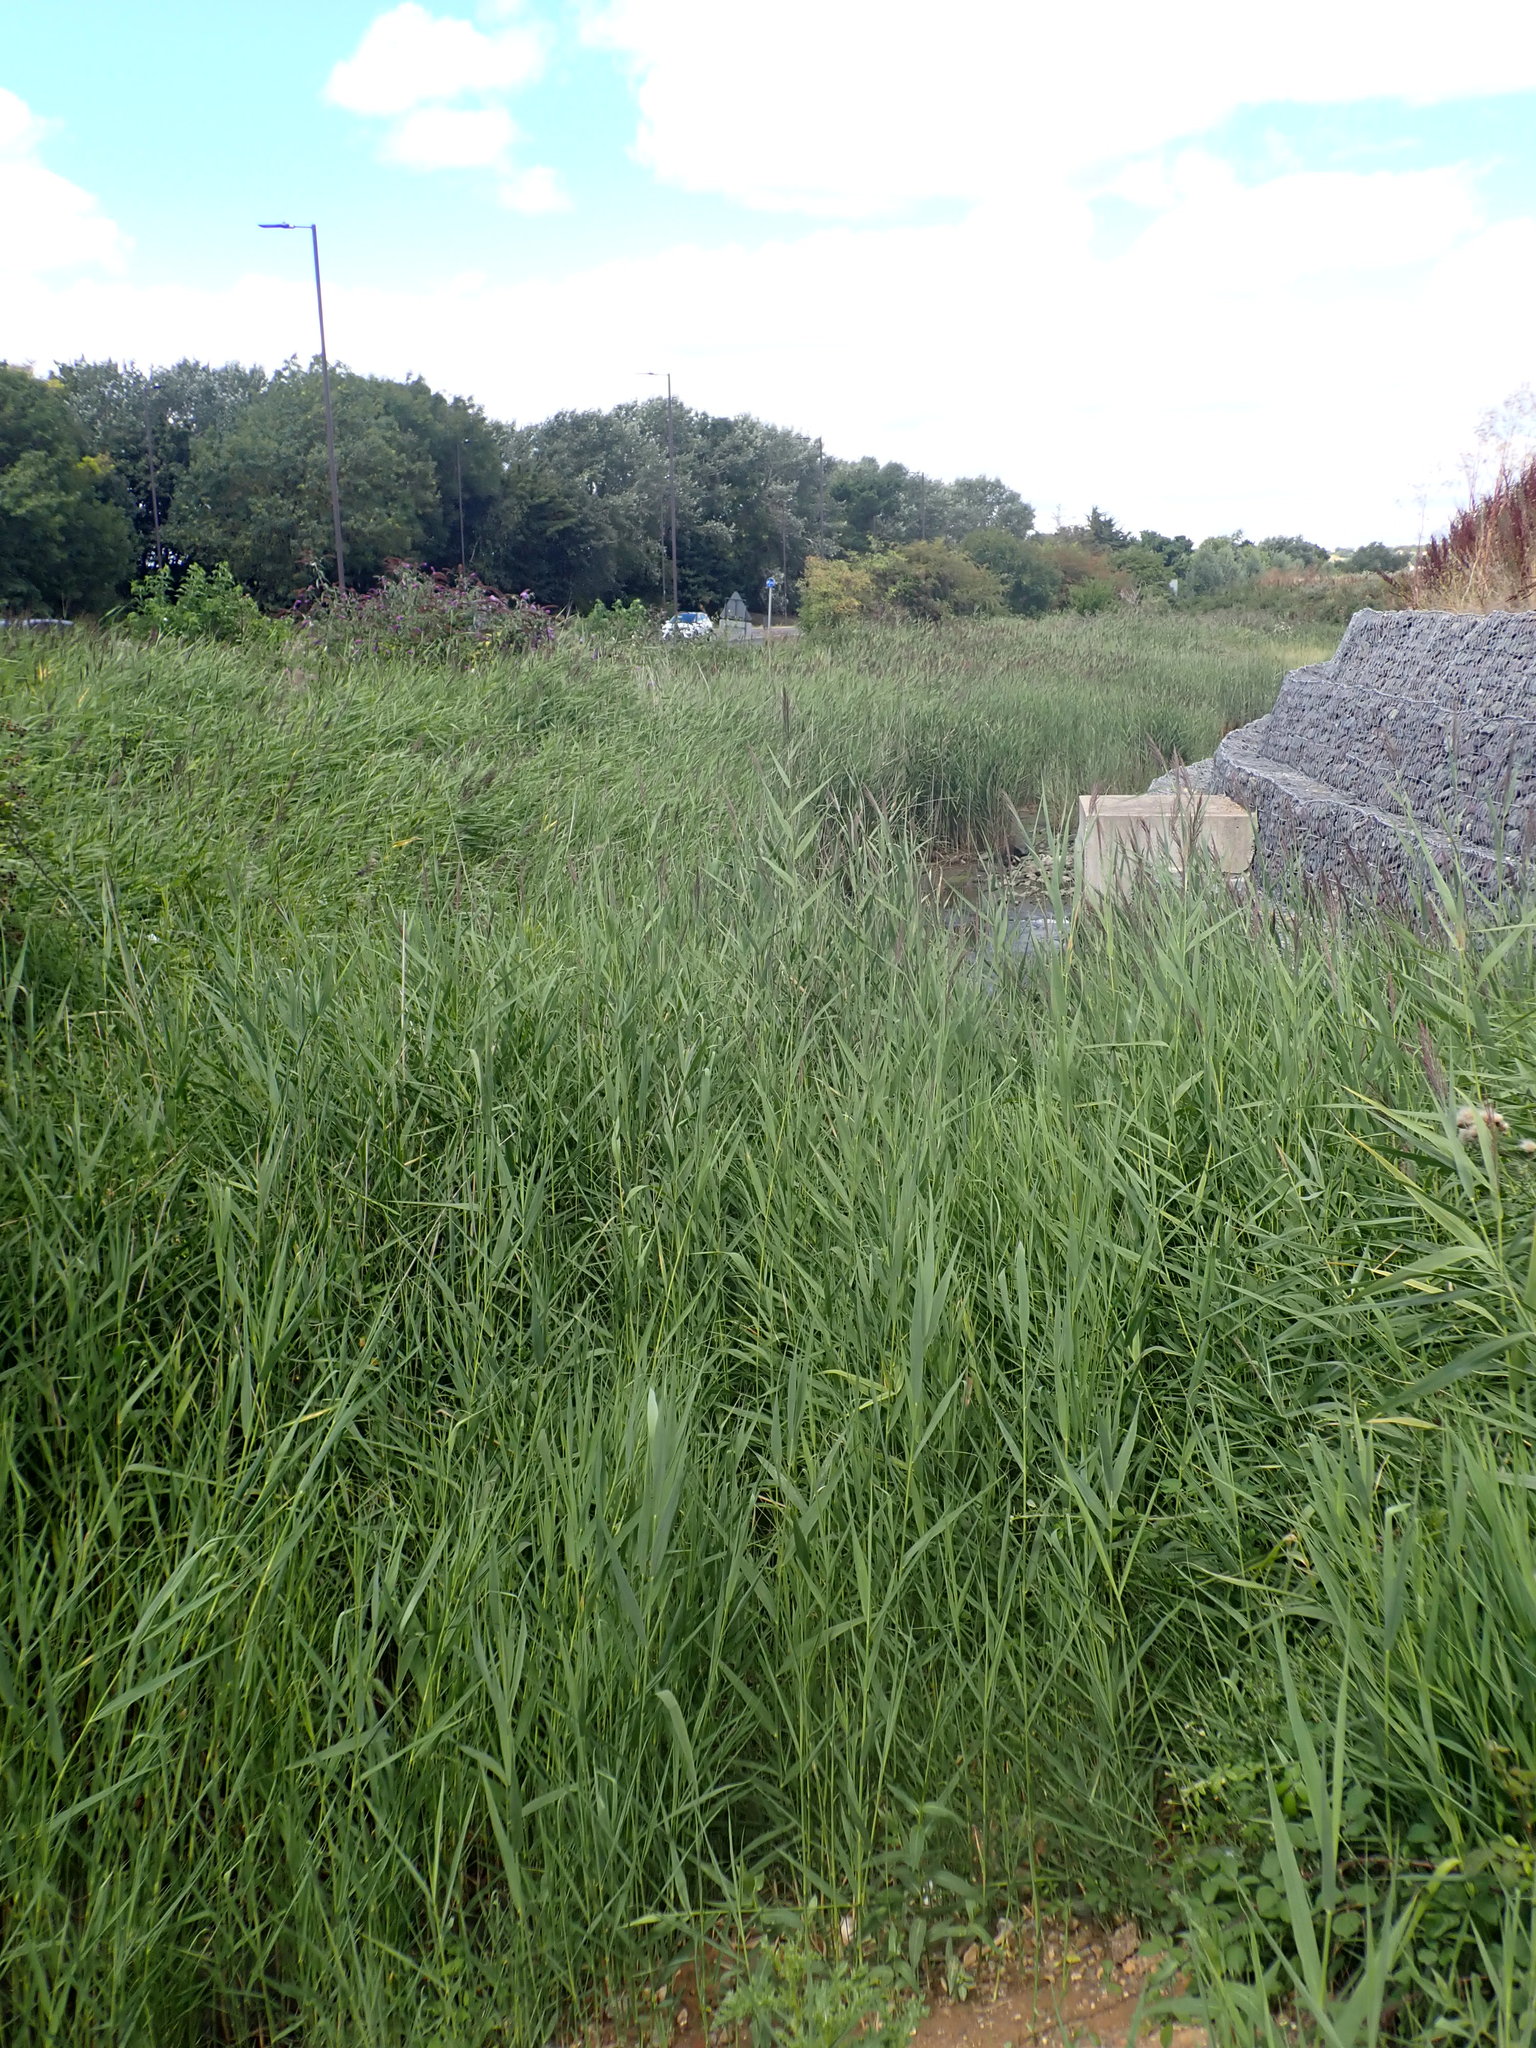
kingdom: Plantae
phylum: Tracheophyta
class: Liliopsida
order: Poales
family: Poaceae
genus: Phragmites
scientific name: Phragmites australis
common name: Common reed
